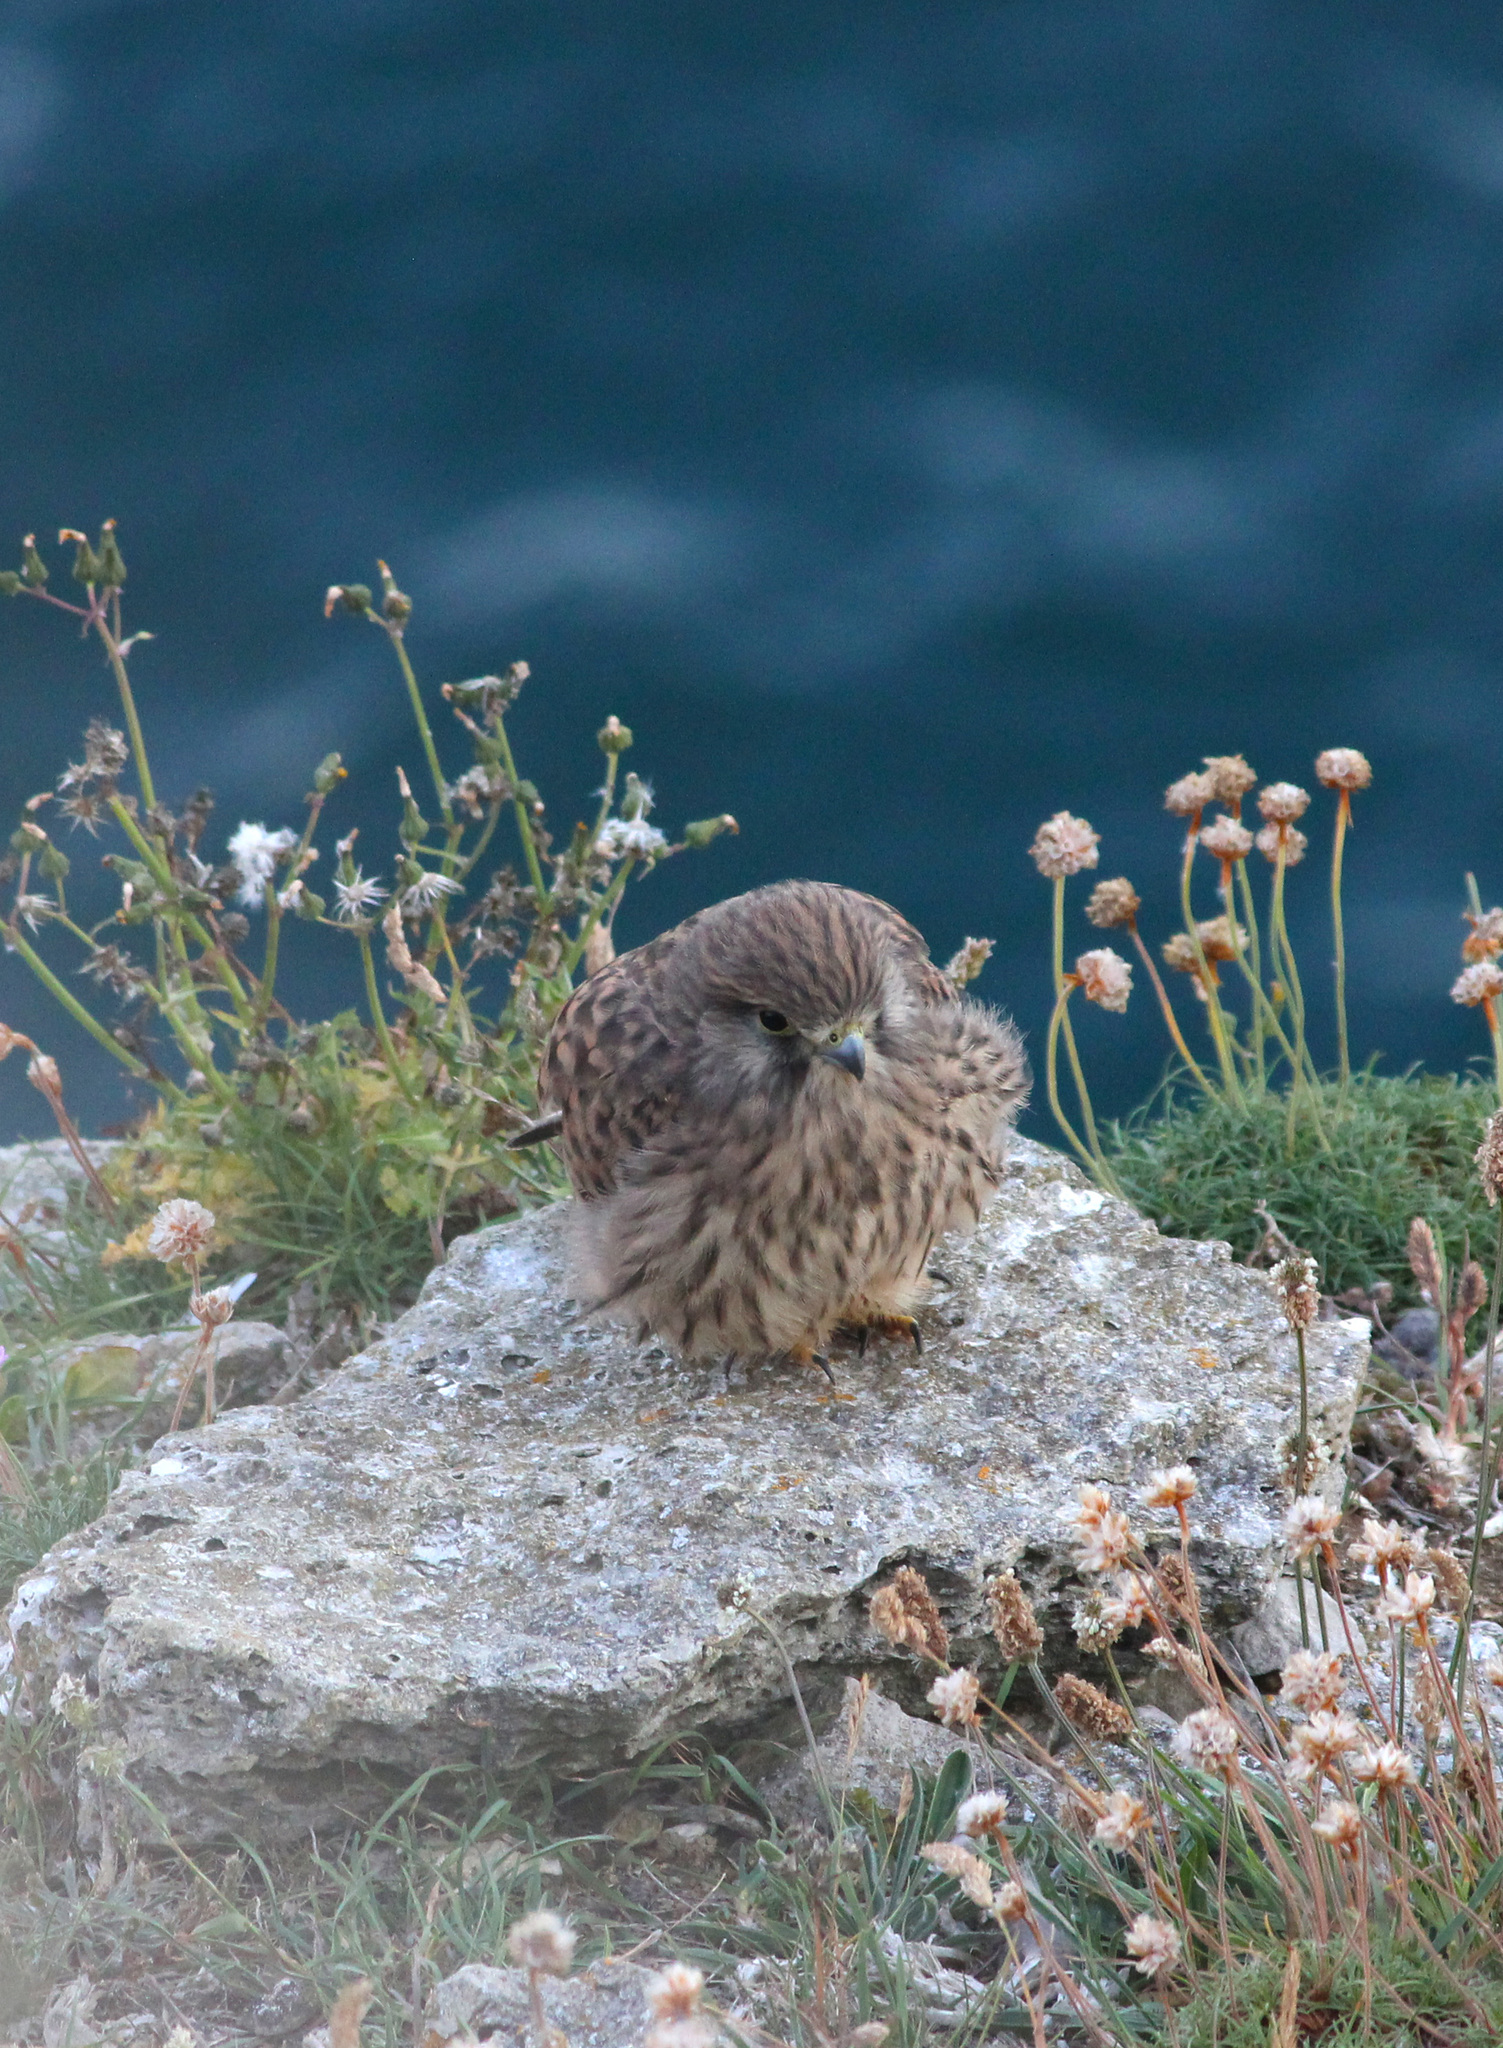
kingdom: Animalia
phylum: Chordata
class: Aves
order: Falconiformes
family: Falconidae
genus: Falco
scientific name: Falco tinnunculus
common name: Common kestrel
